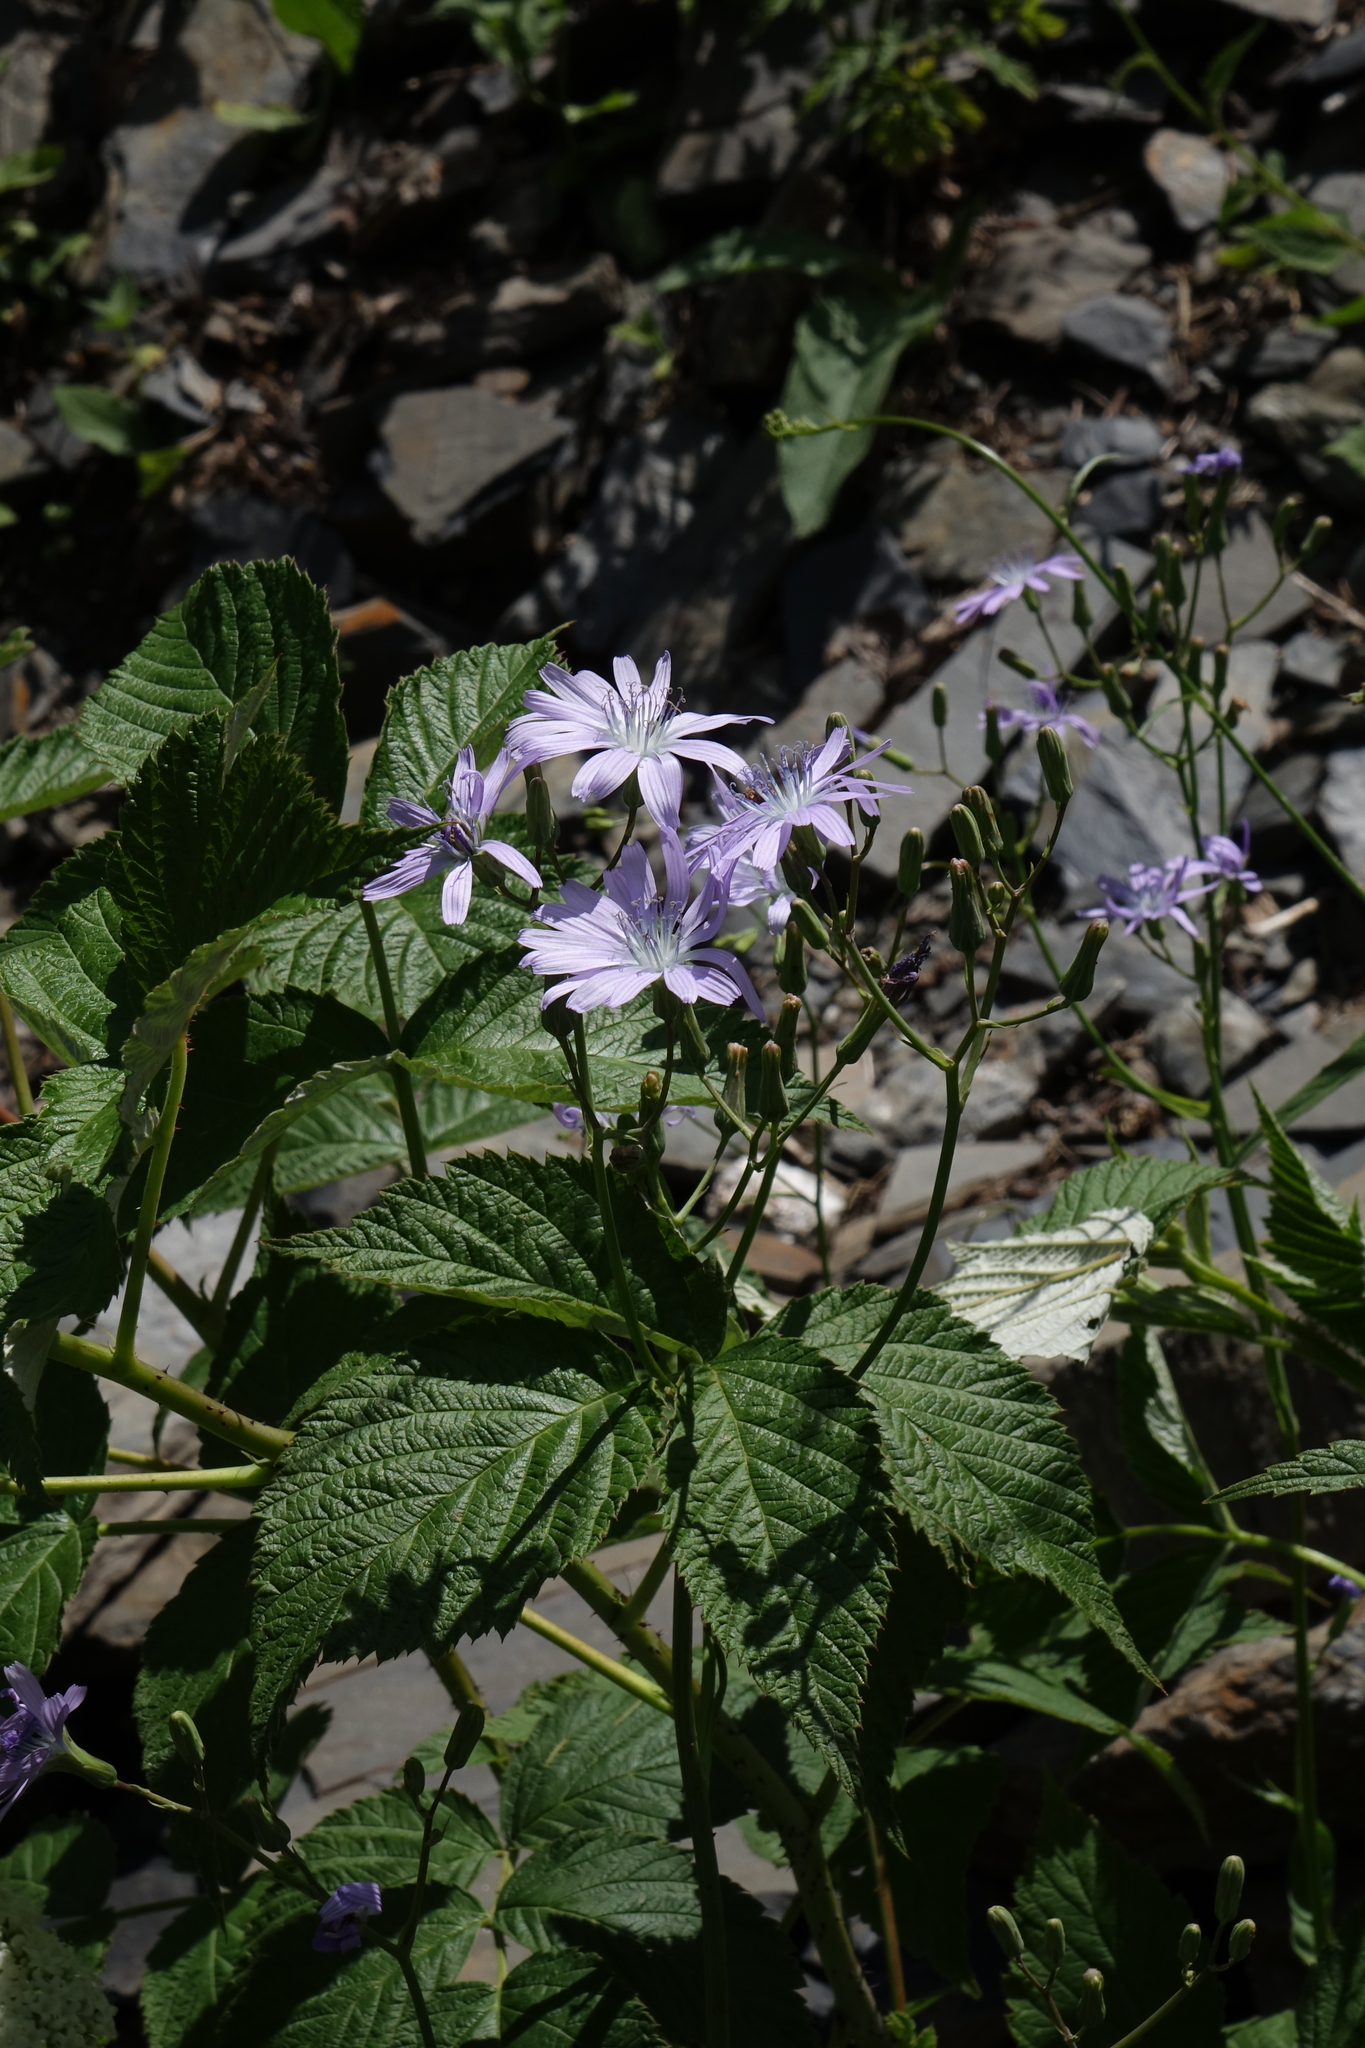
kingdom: Plantae
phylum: Tracheophyta
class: Magnoliopsida
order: Asterales
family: Asteraceae
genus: Lactuca
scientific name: Lactuca racemosa
